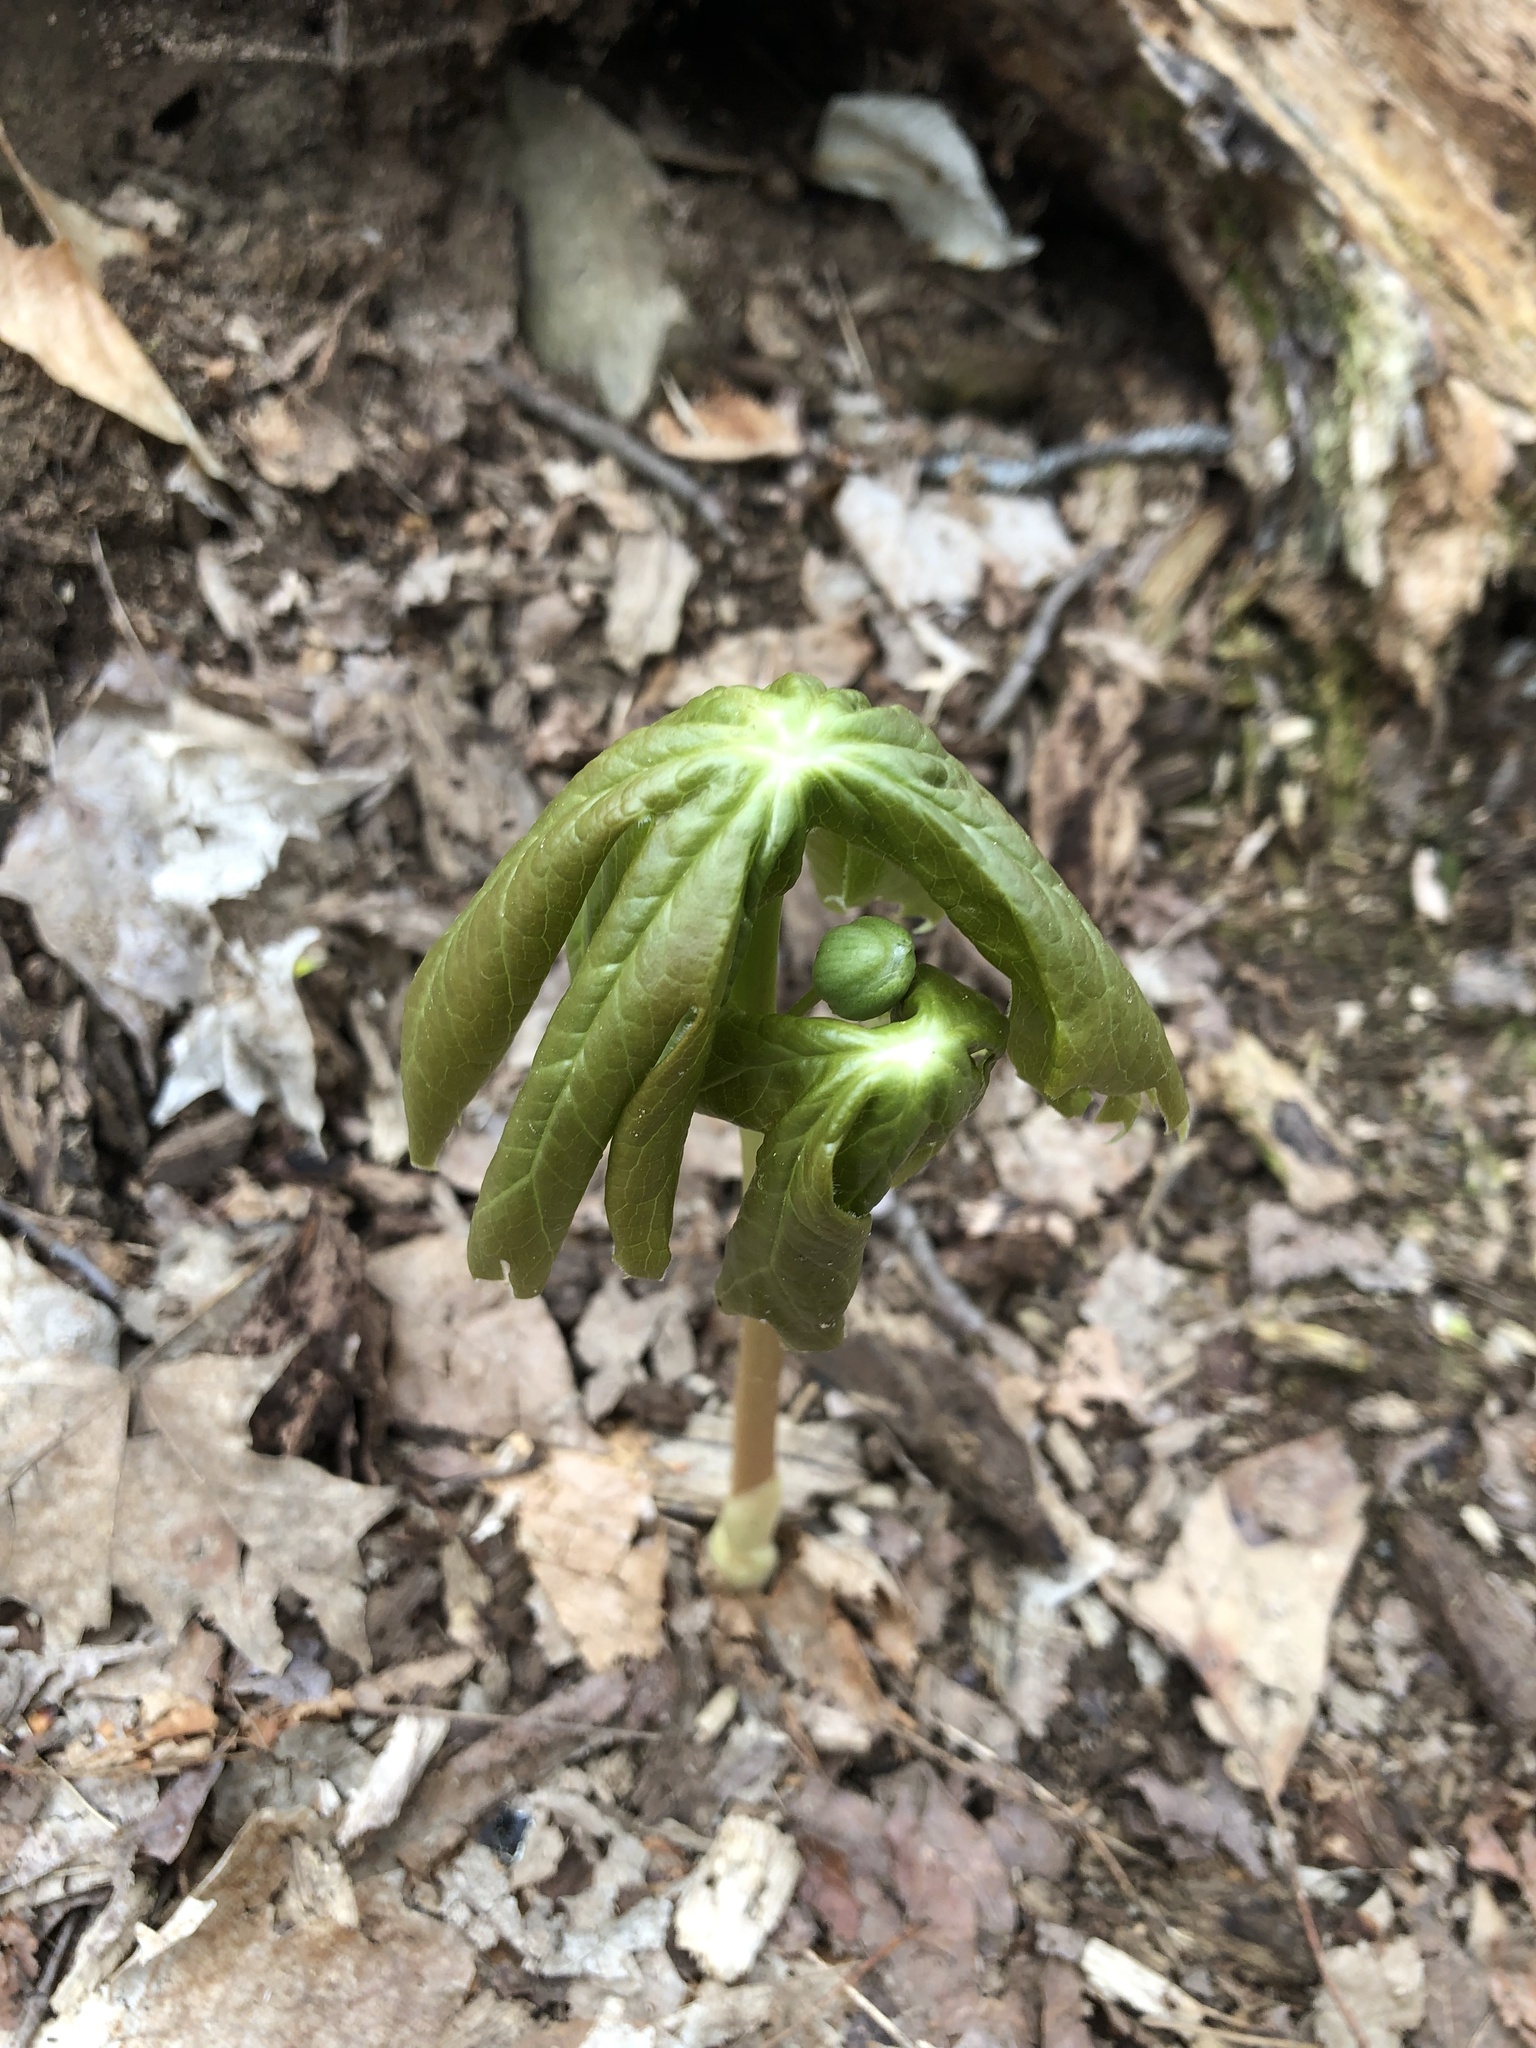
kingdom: Plantae
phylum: Tracheophyta
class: Magnoliopsida
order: Ranunculales
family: Berberidaceae
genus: Podophyllum
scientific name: Podophyllum peltatum
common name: Wild mandrake
